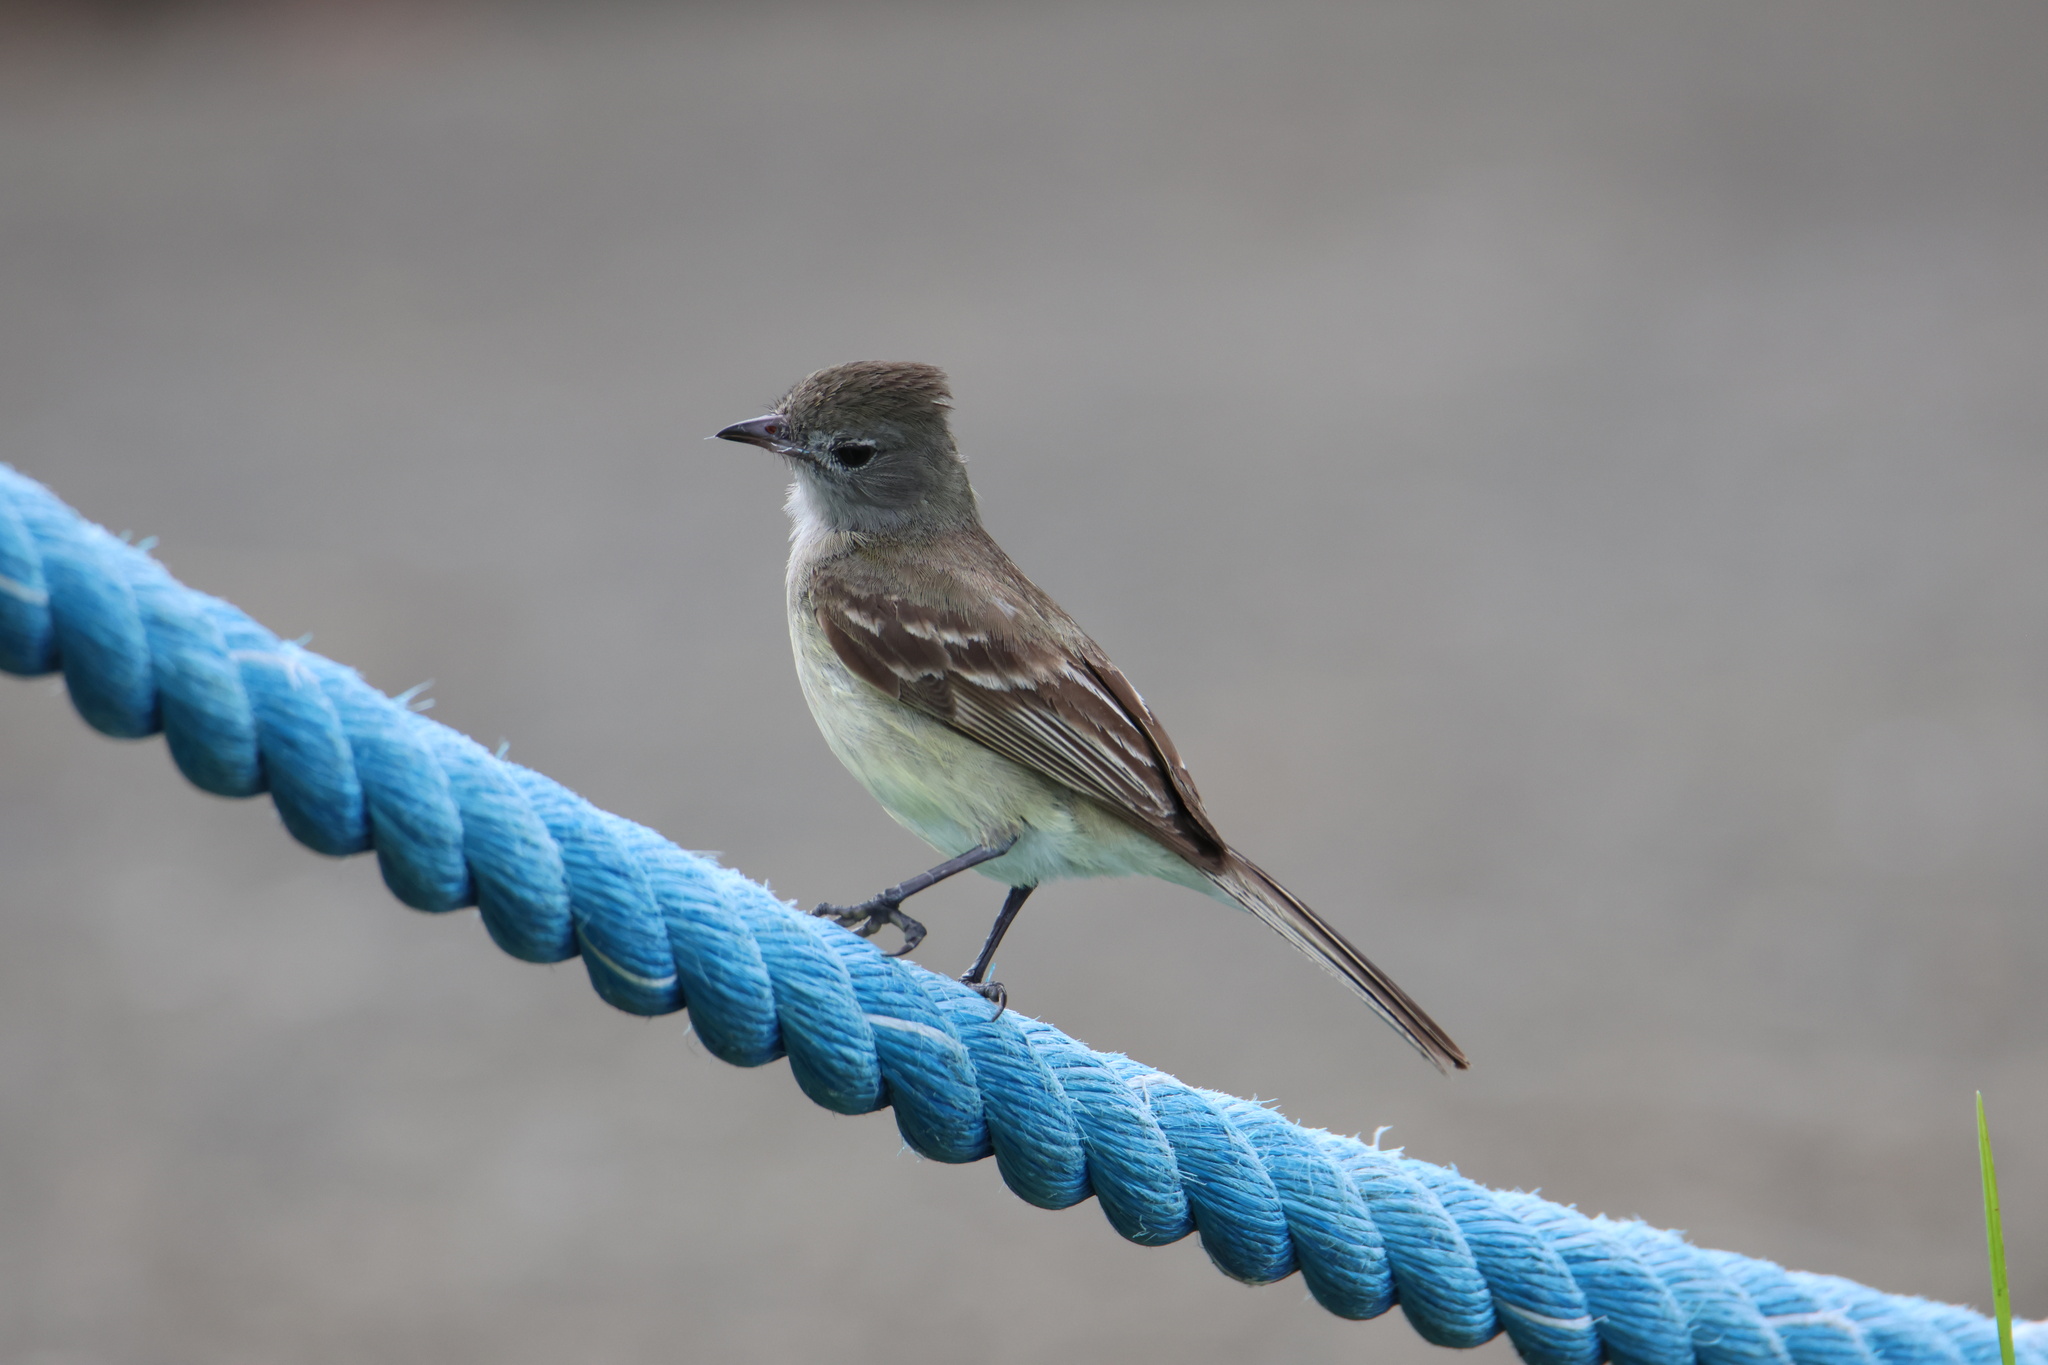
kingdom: Animalia
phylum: Chordata
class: Aves
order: Passeriformes
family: Tyrannidae
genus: Elaenia
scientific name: Elaenia chiriquensis
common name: Lesser elaenia
